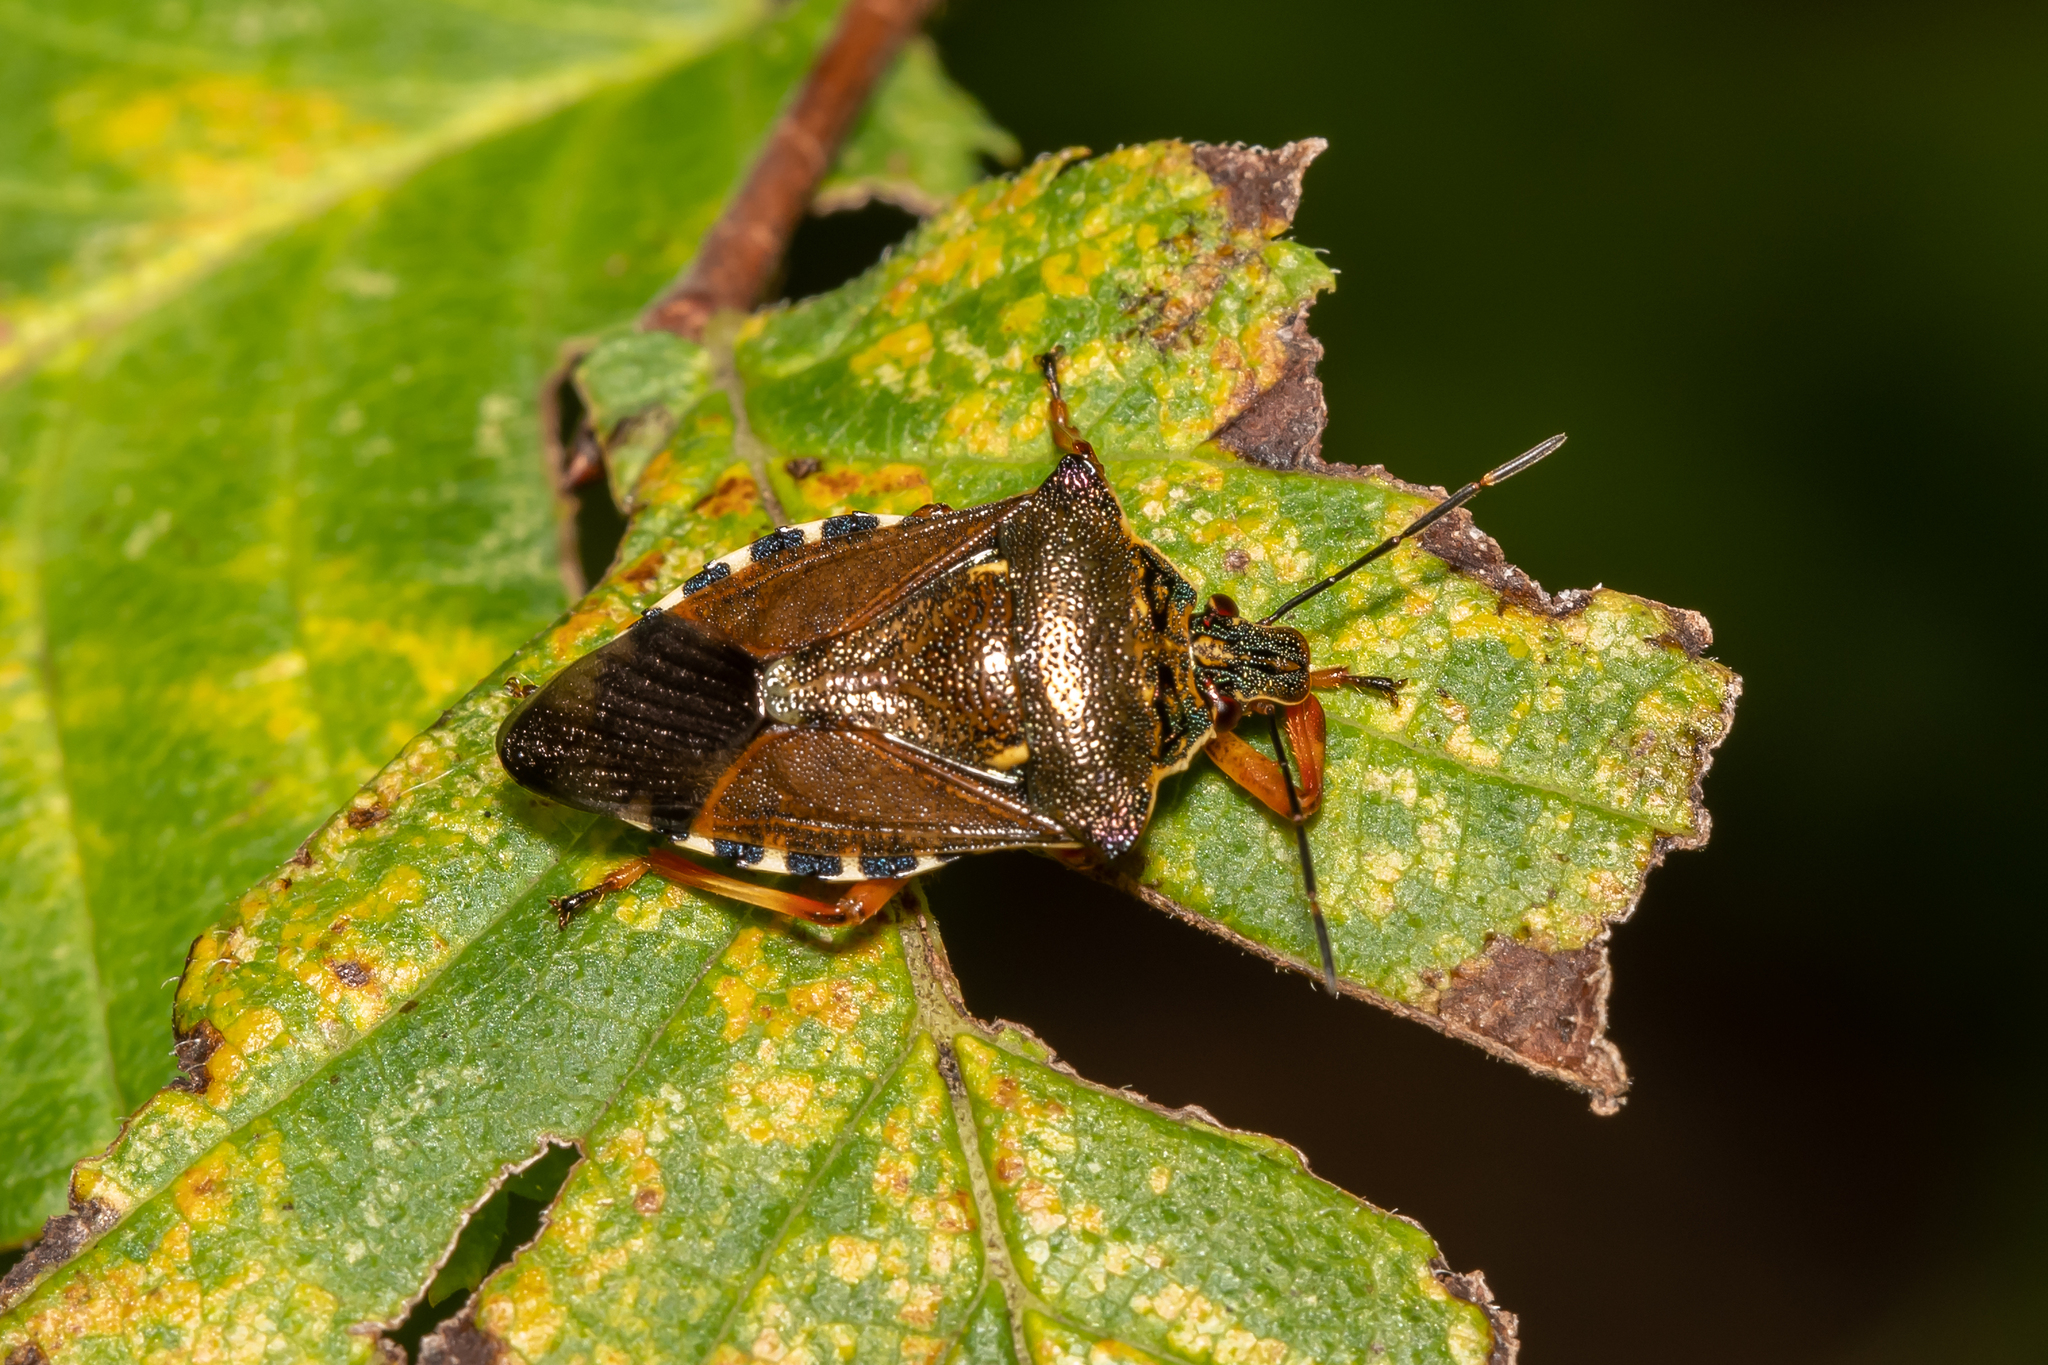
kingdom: Animalia
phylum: Arthropoda
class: Insecta
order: Hemiptera
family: Pentatomidae
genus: Pinthaeus
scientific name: Pinthaeus sanguinipes
